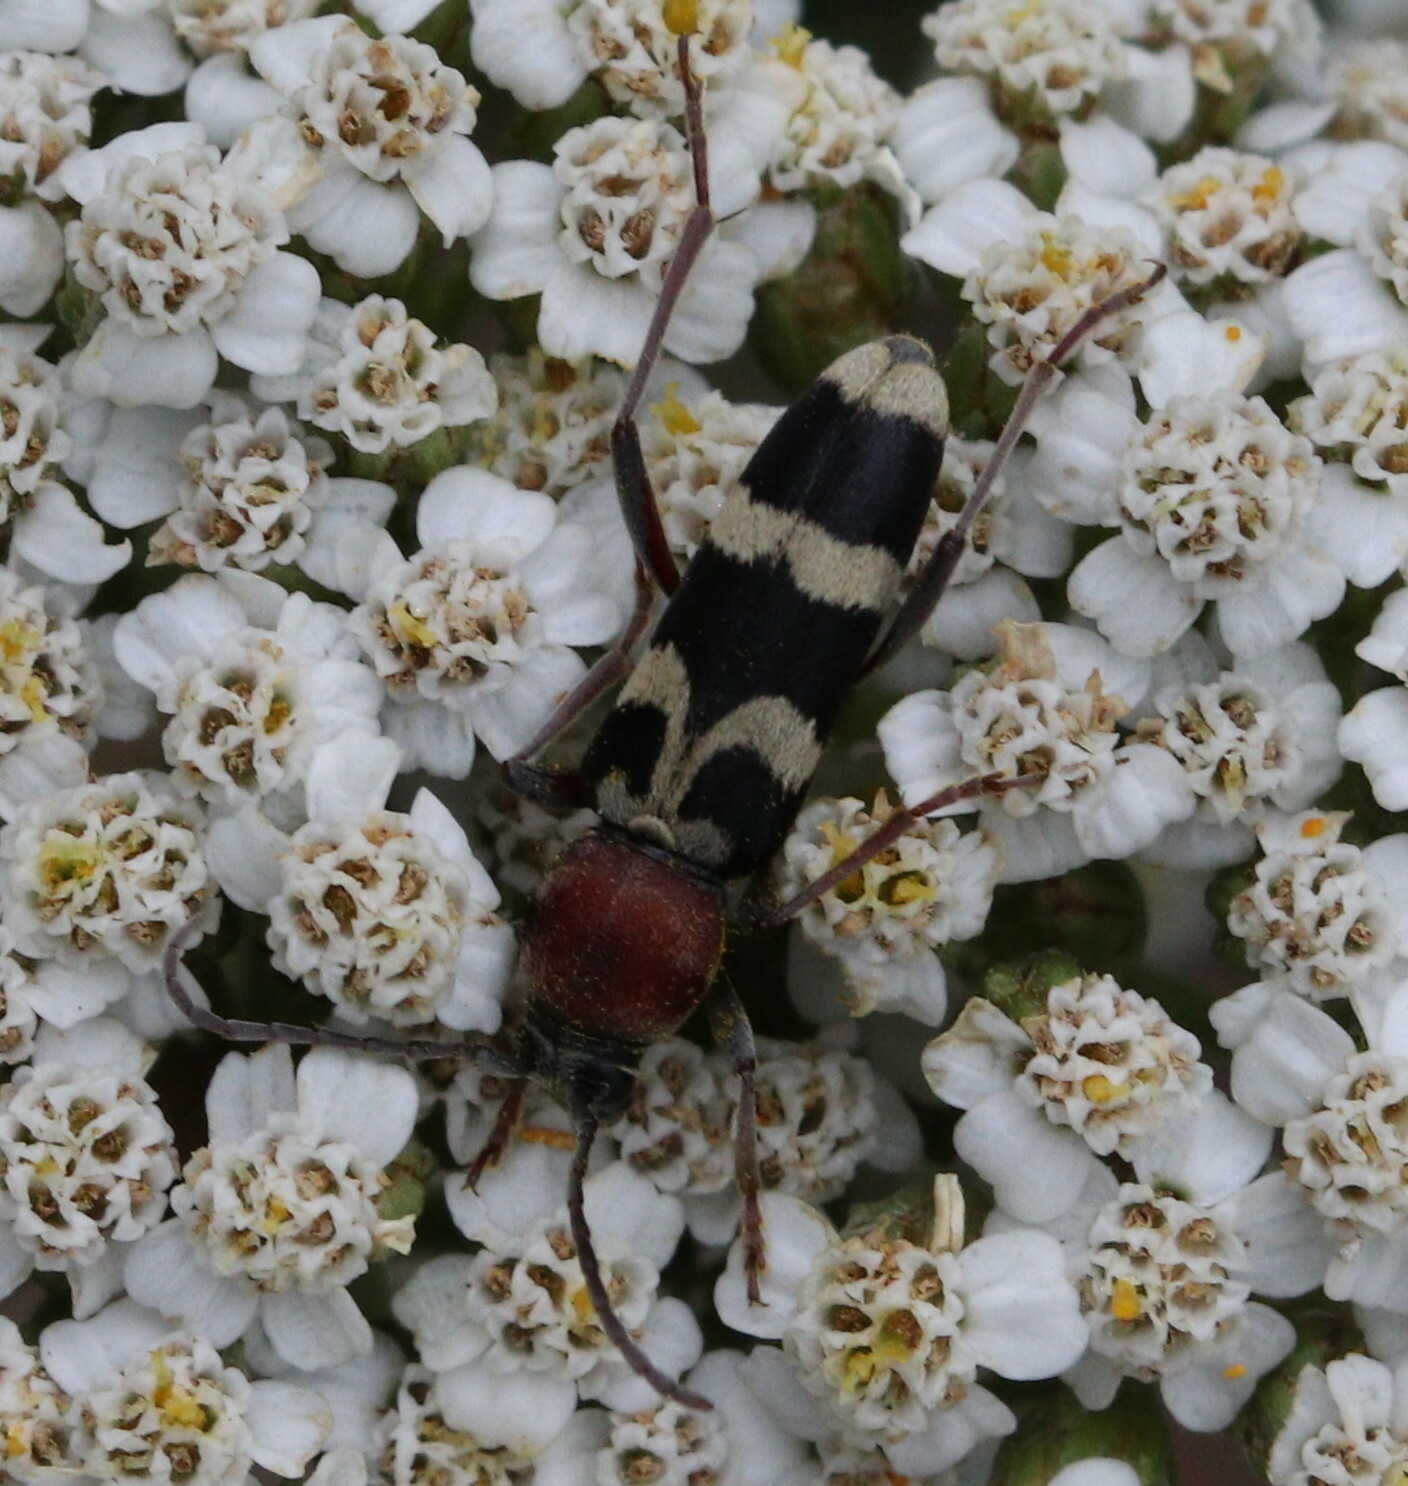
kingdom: Animalia
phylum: Arthropoda
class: Insecta
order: Coleoptera
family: Cerambycidae
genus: Chlorophorus
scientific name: Chlorophorus trifasciatus
